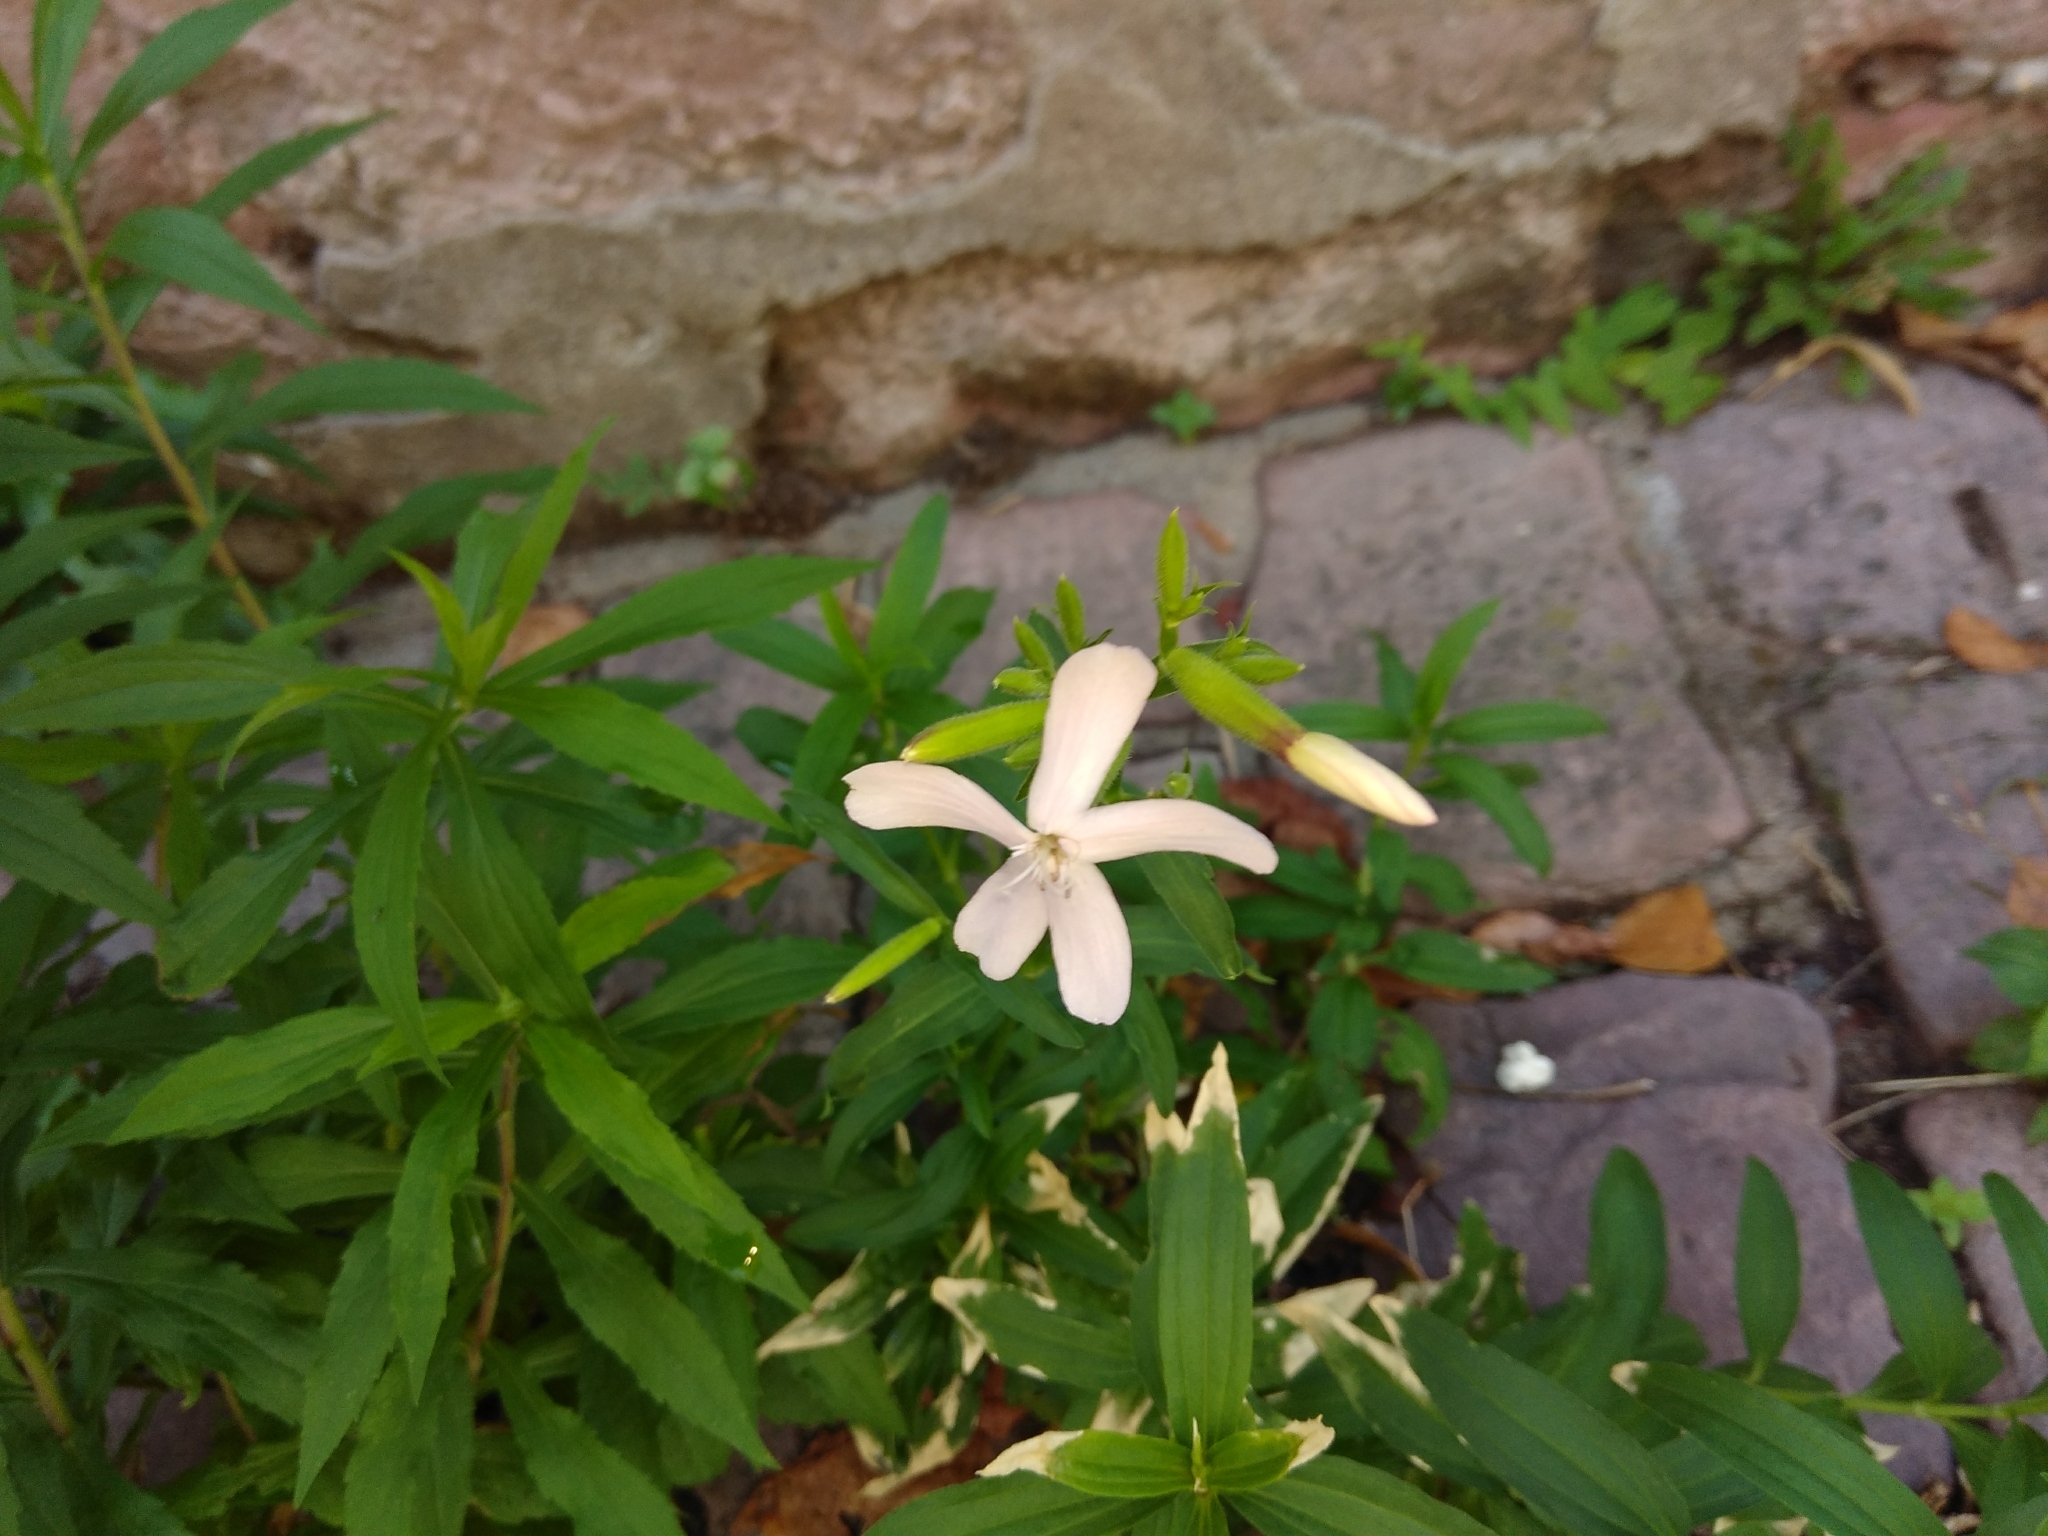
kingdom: Plantae
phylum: Tracheophyta
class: Magnoliopsida
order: Caryophyllales
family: Caryophyllaceae
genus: Saponaria
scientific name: Saponaria officinalis
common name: Soapwort
